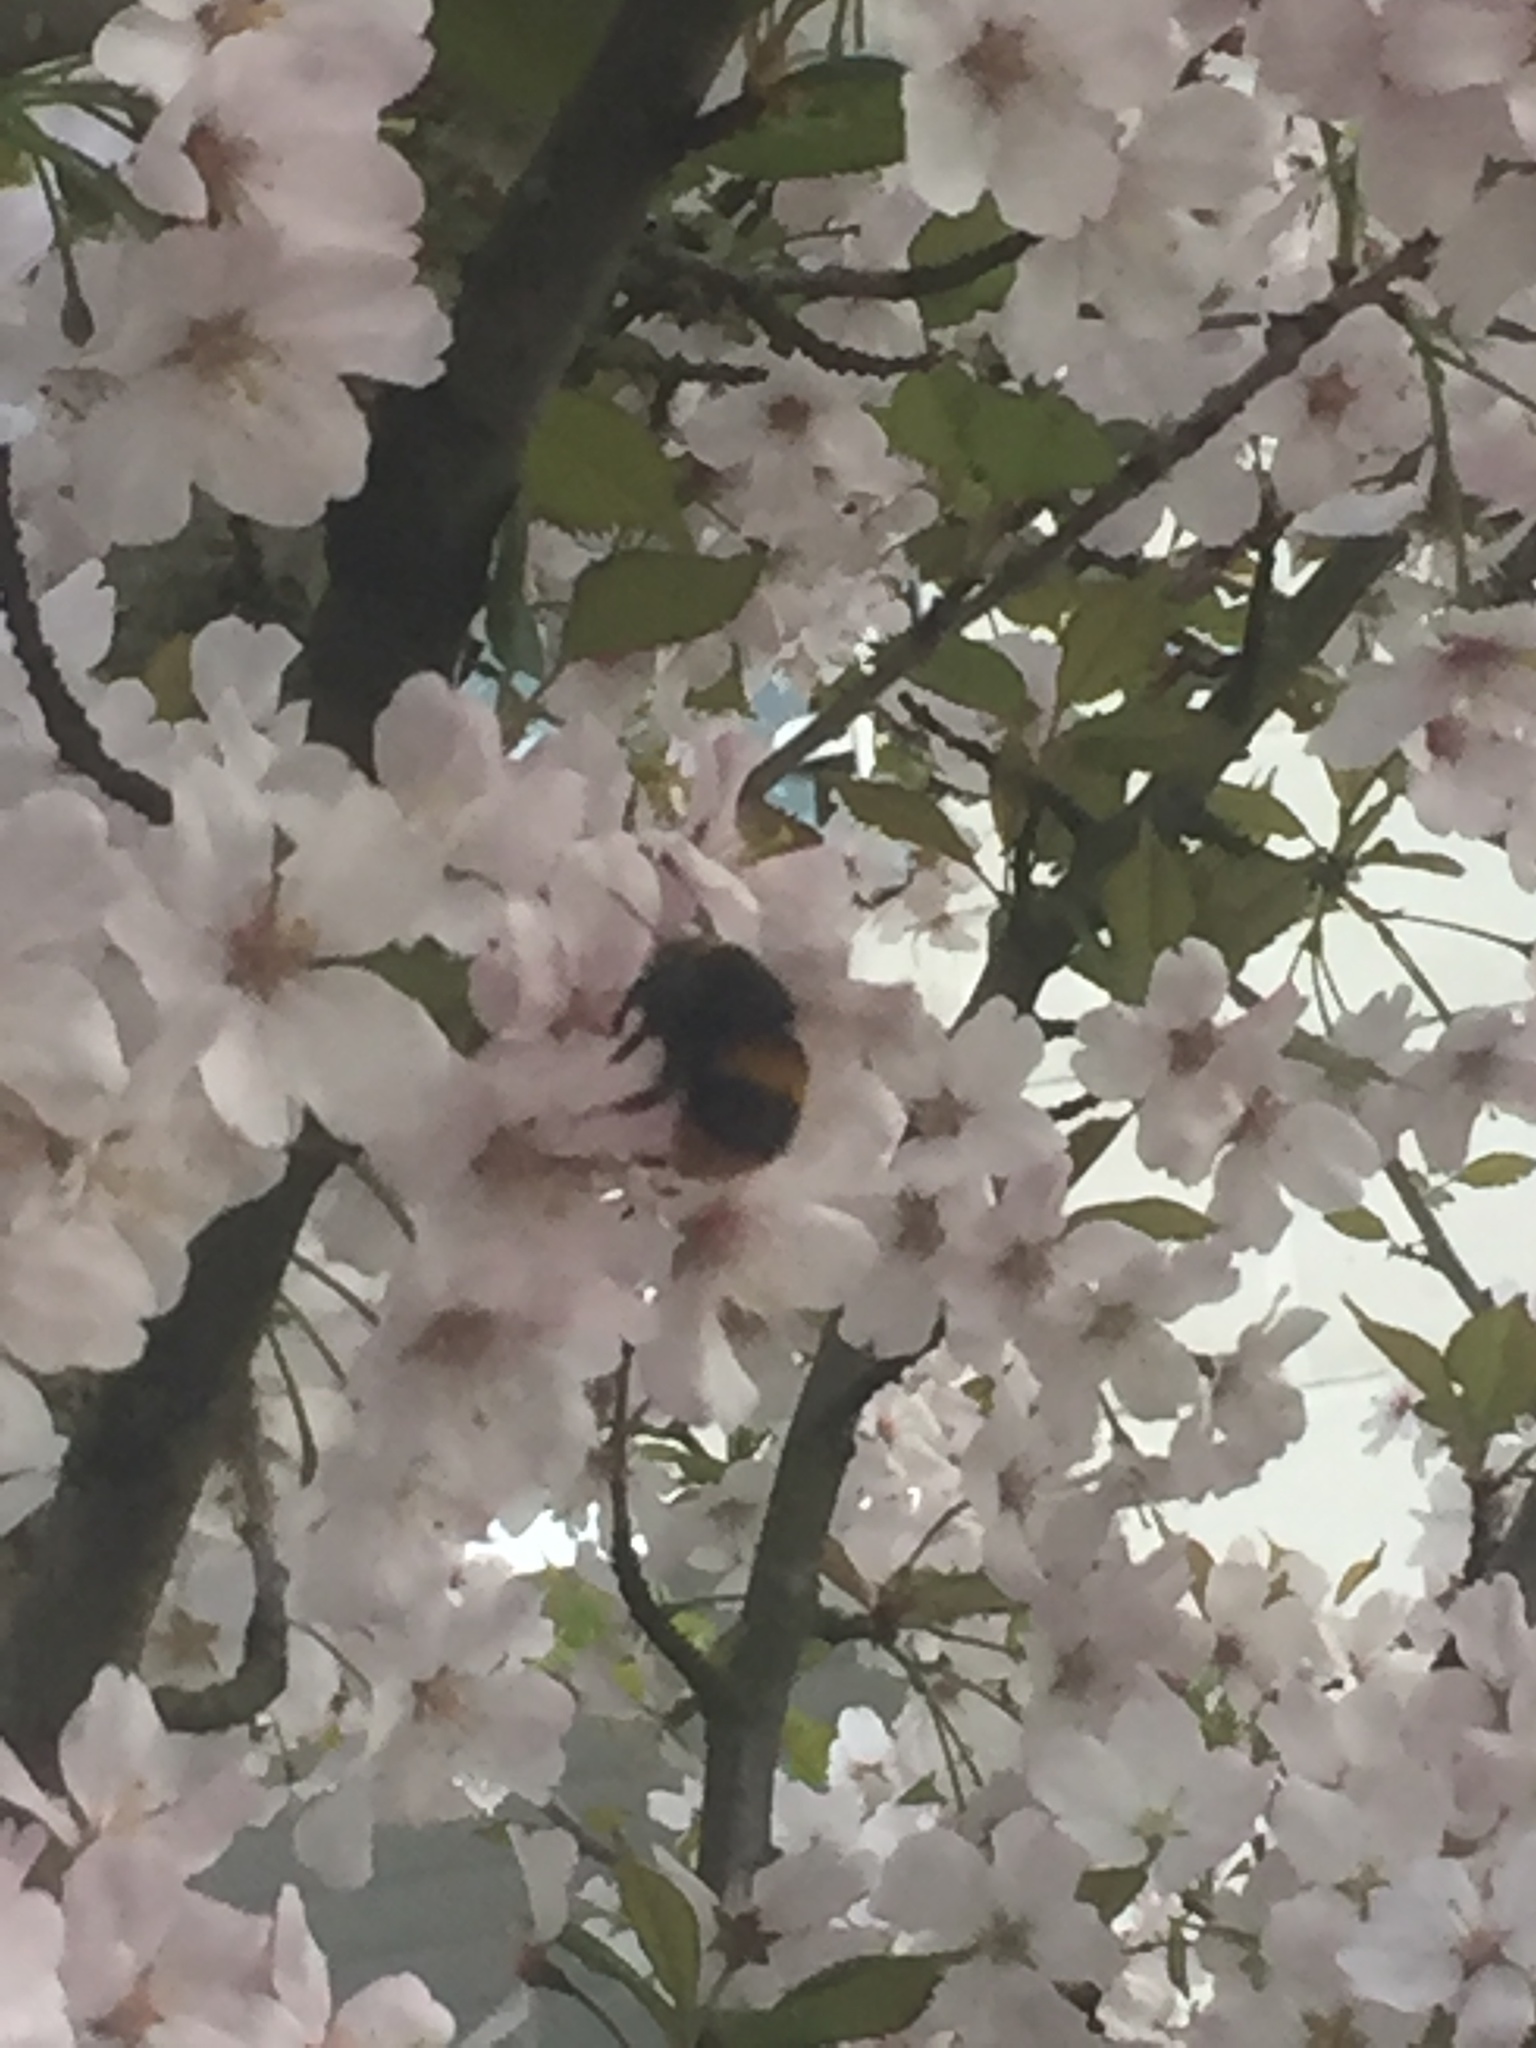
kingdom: Animalia
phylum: Arthropoda
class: Insecta
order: Hymenoptera
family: Apidae
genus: Bombus
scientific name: Bombus pratorum
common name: Early humble-bee
